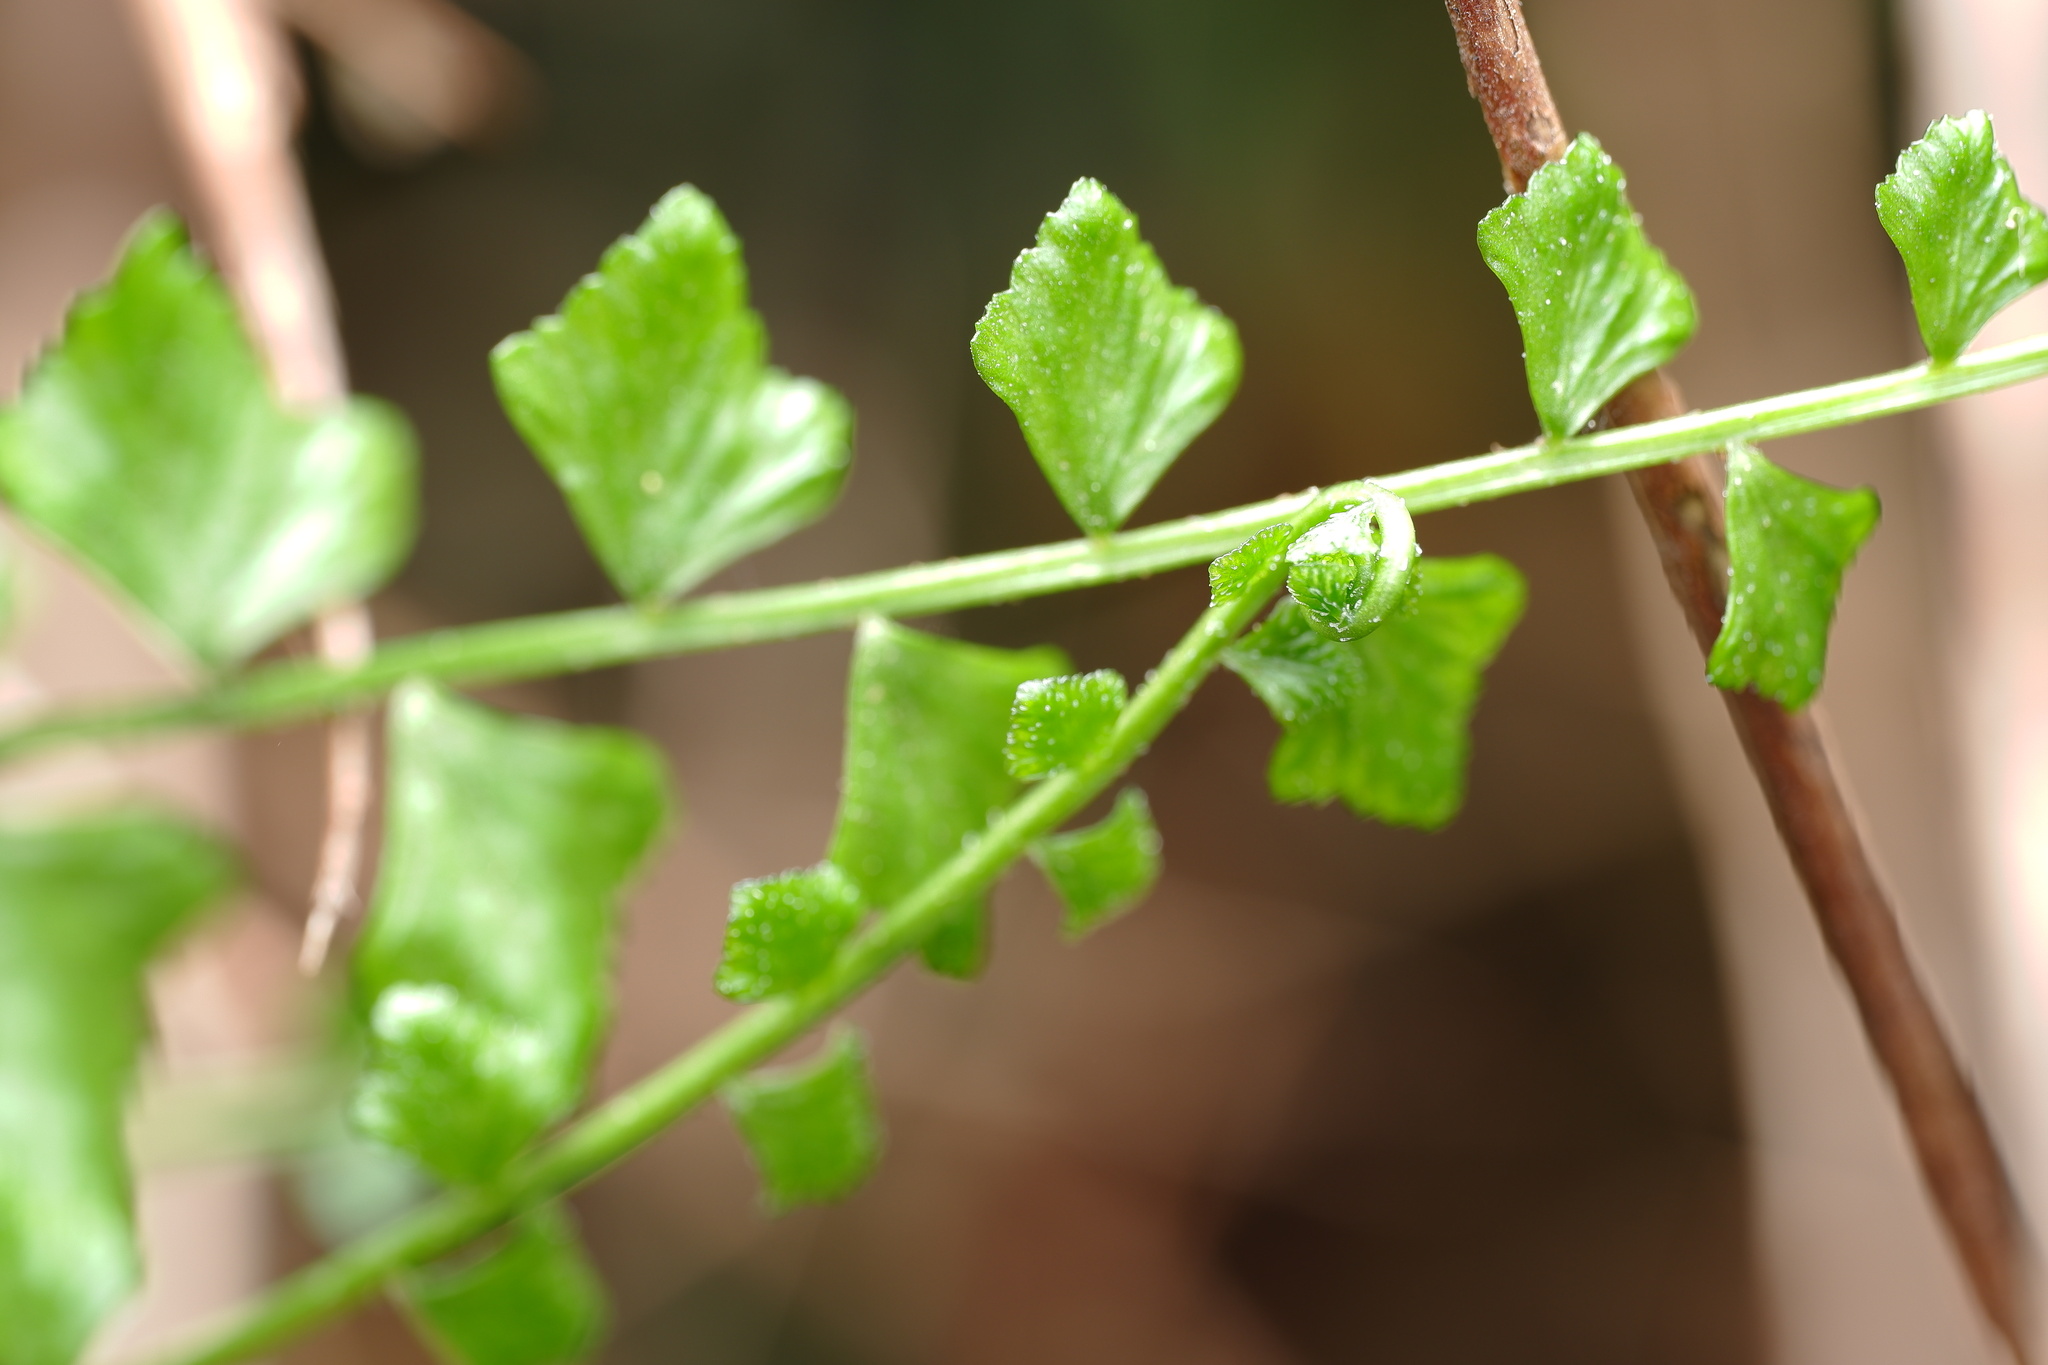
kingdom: Plantae
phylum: Tracheophyta
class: Polypodiopsida
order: Polypodiales
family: Aspleniaceae
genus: Asplenium
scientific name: Asplenium flabellifolium
